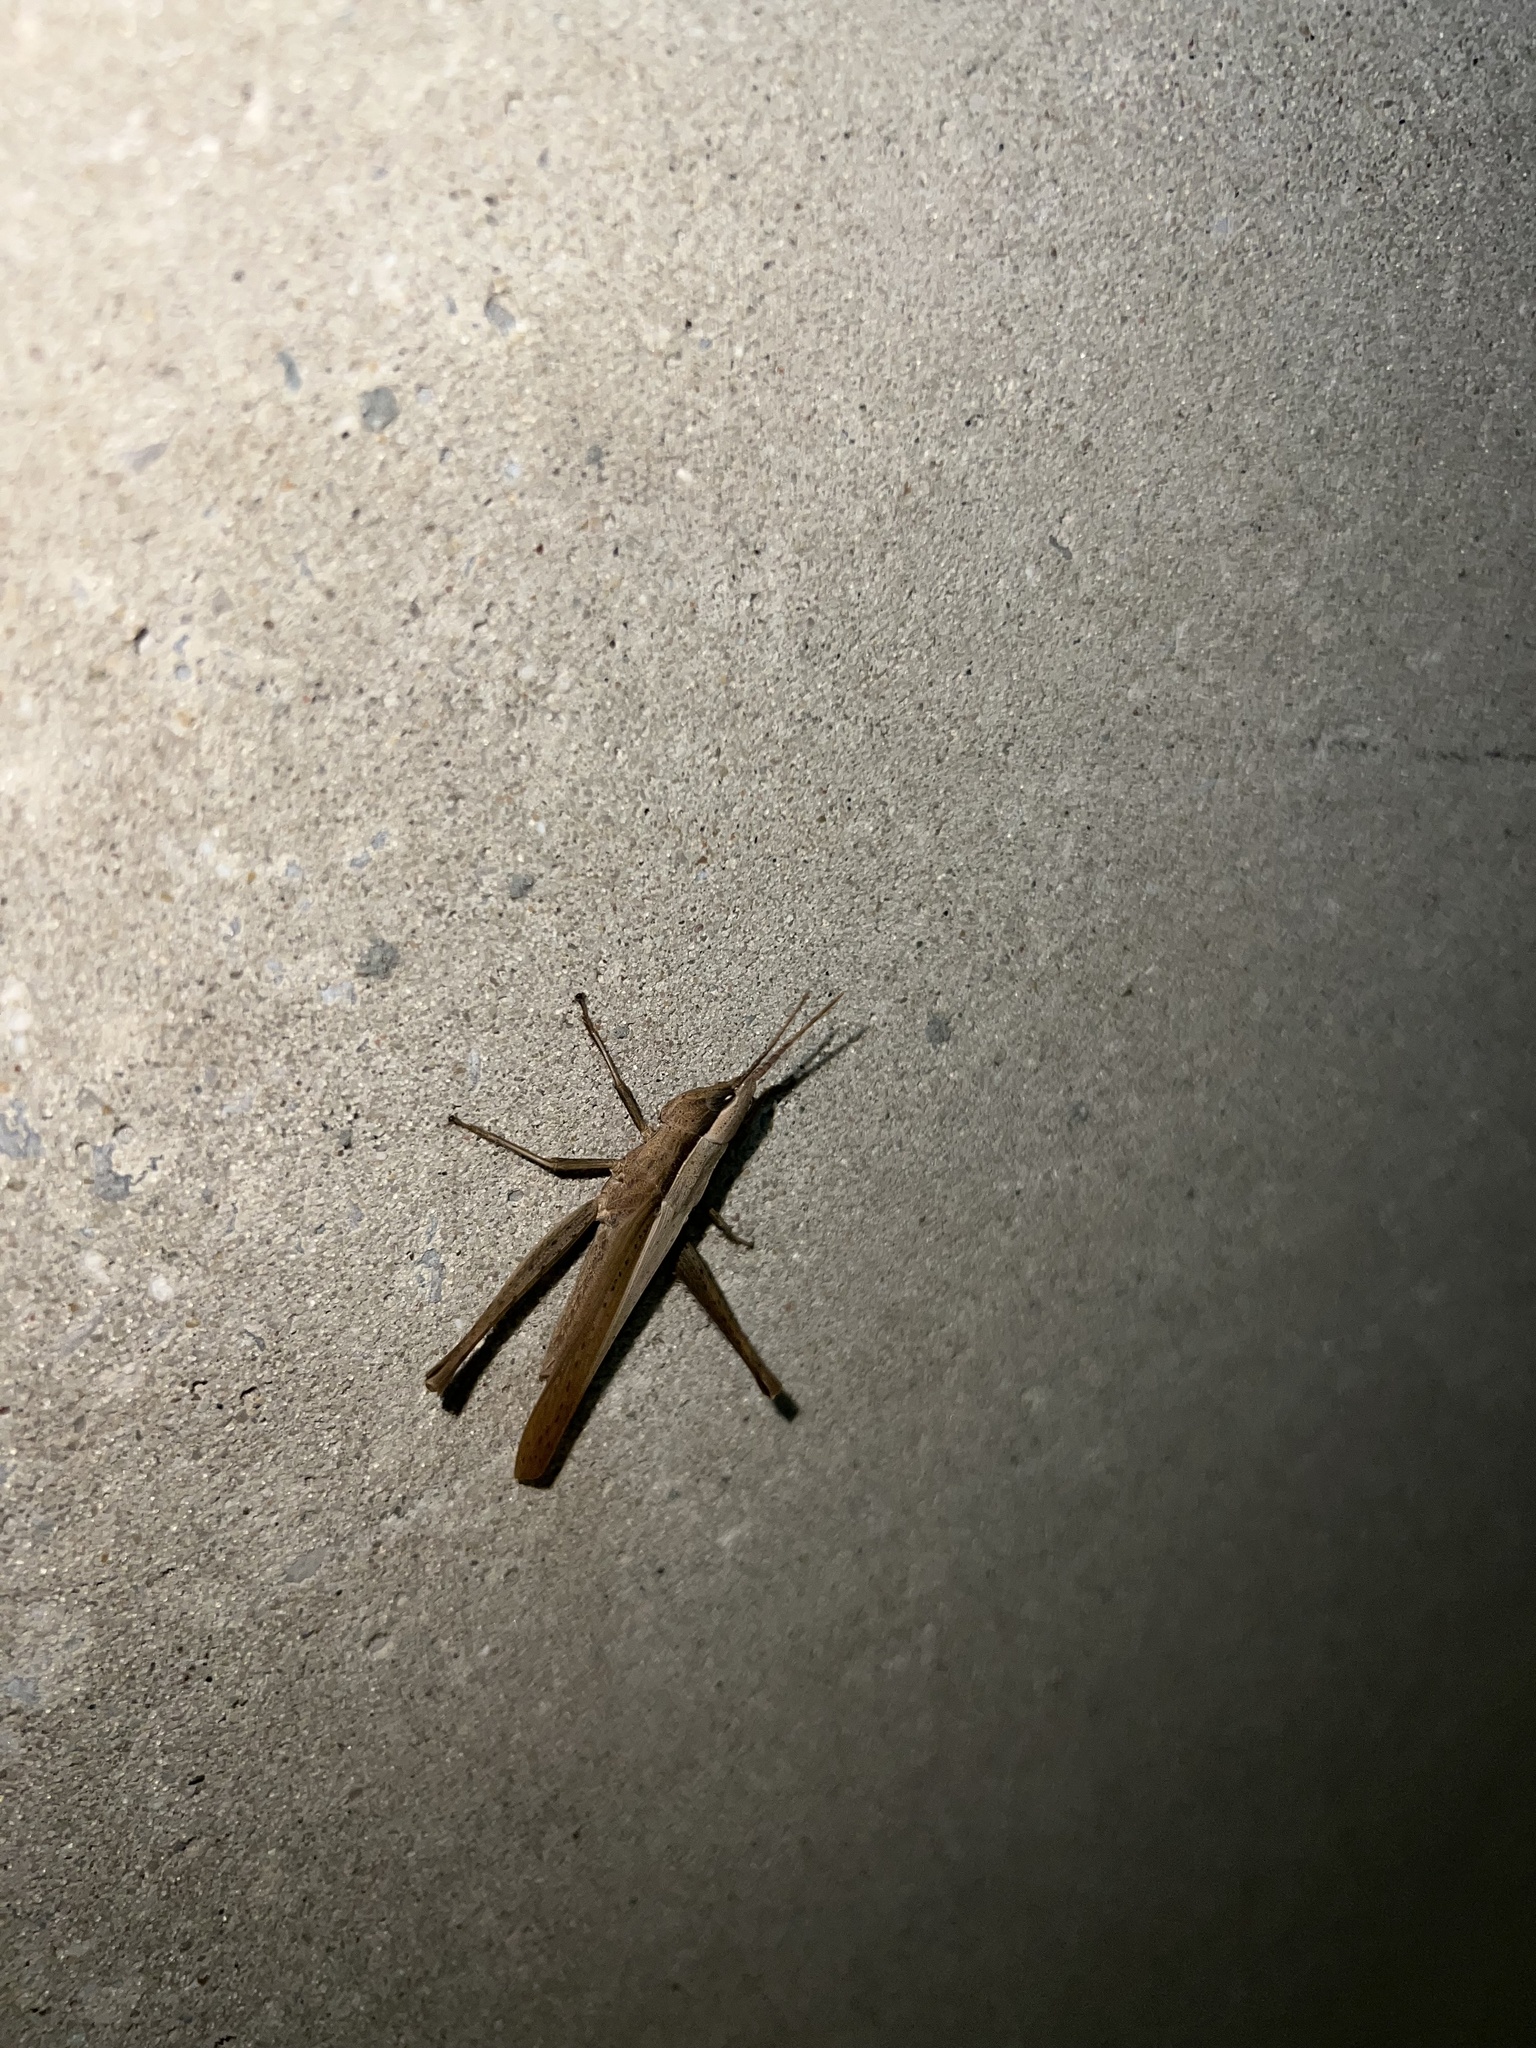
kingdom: Animalia
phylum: Arthropoda
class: Insecta
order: Orthoptera
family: Acrididae
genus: Metaleptea
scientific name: Metaleptea brevicornis
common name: Clipped-wing grasshopper
